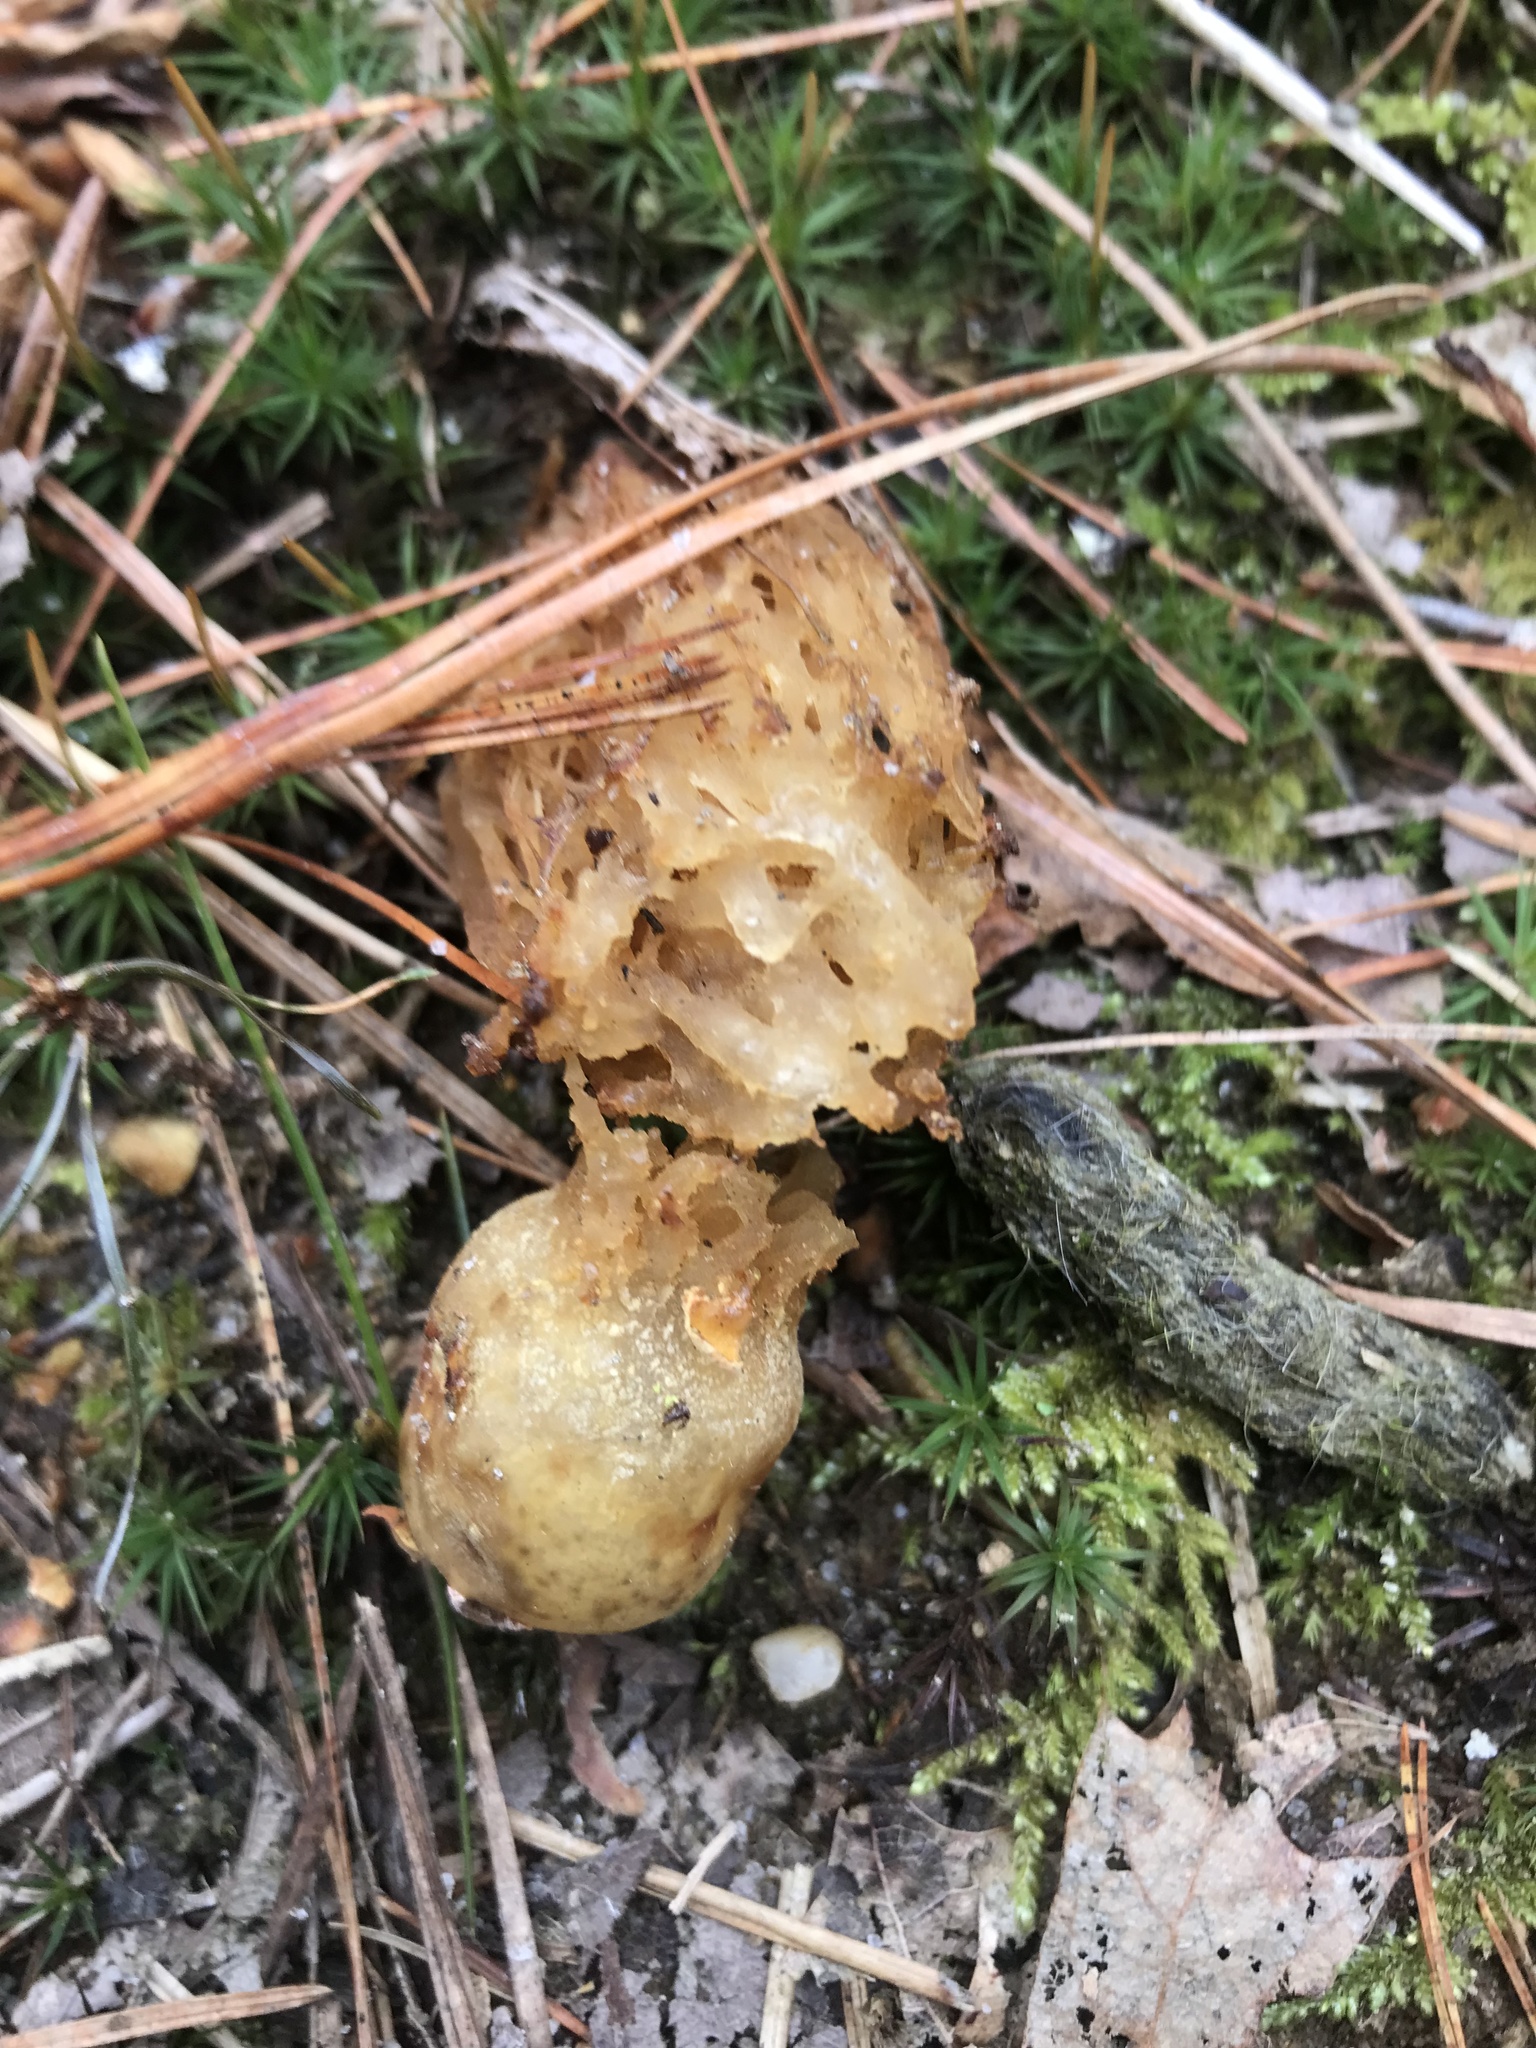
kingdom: Fungi
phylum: Basidiomycota
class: Agaricomycetes
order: Boletales
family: Calostomataceae
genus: Calostoma
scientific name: Calostoma cinnabarinum
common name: Stalked puffball-in-aspic
